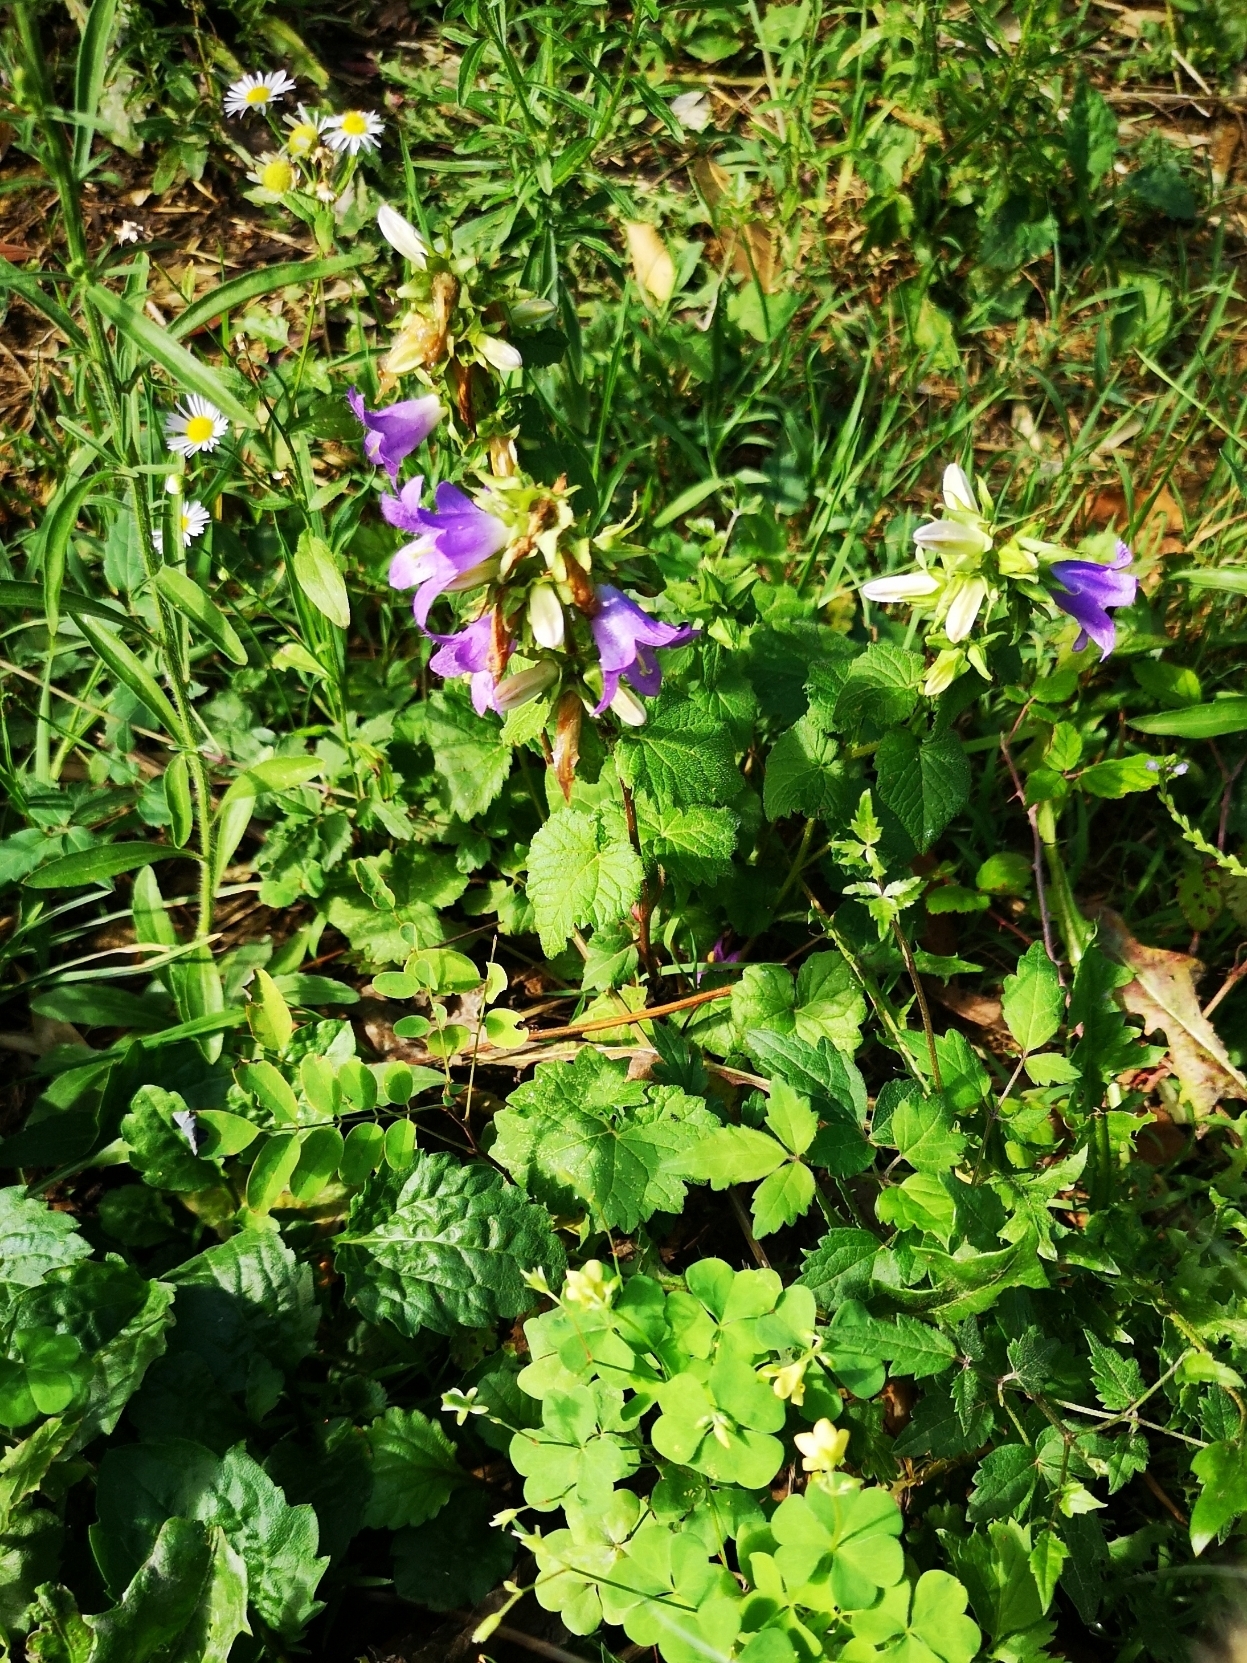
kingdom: Plantae
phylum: Tracheophyta
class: Magnoliopsida
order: Asterales
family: Campanulaceae
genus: Campanula
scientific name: Campanula trachelium
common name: Nettle-leaved bellflower
